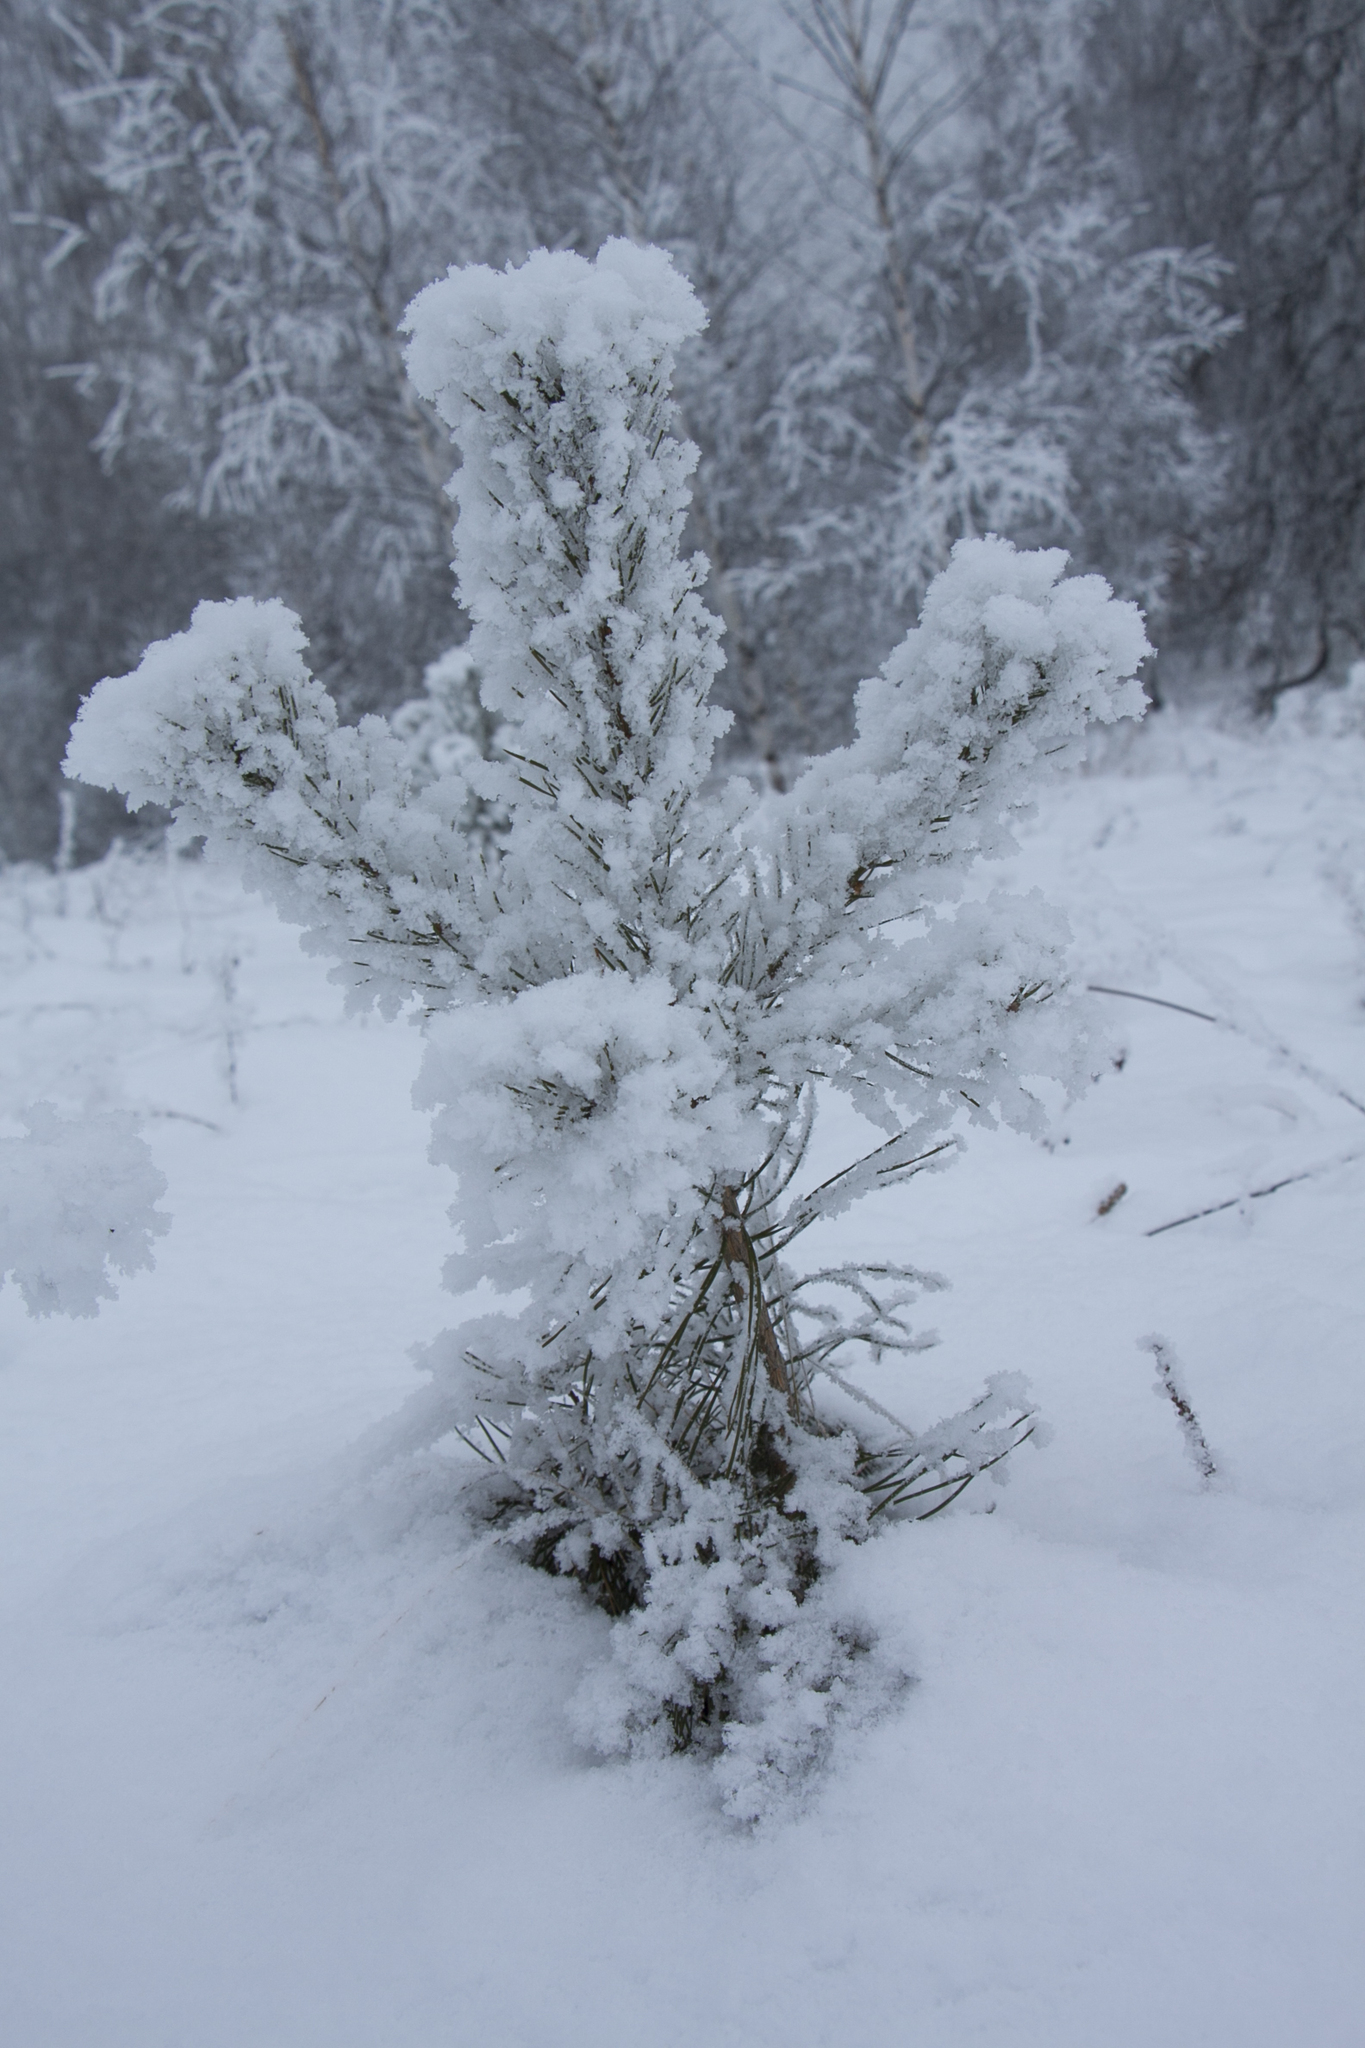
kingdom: Plantae
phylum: Tracheophyta
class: Pinopsida
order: Pinales
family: Pinaceae
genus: Pinus
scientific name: Pinus sylvestris
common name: Scots pine
